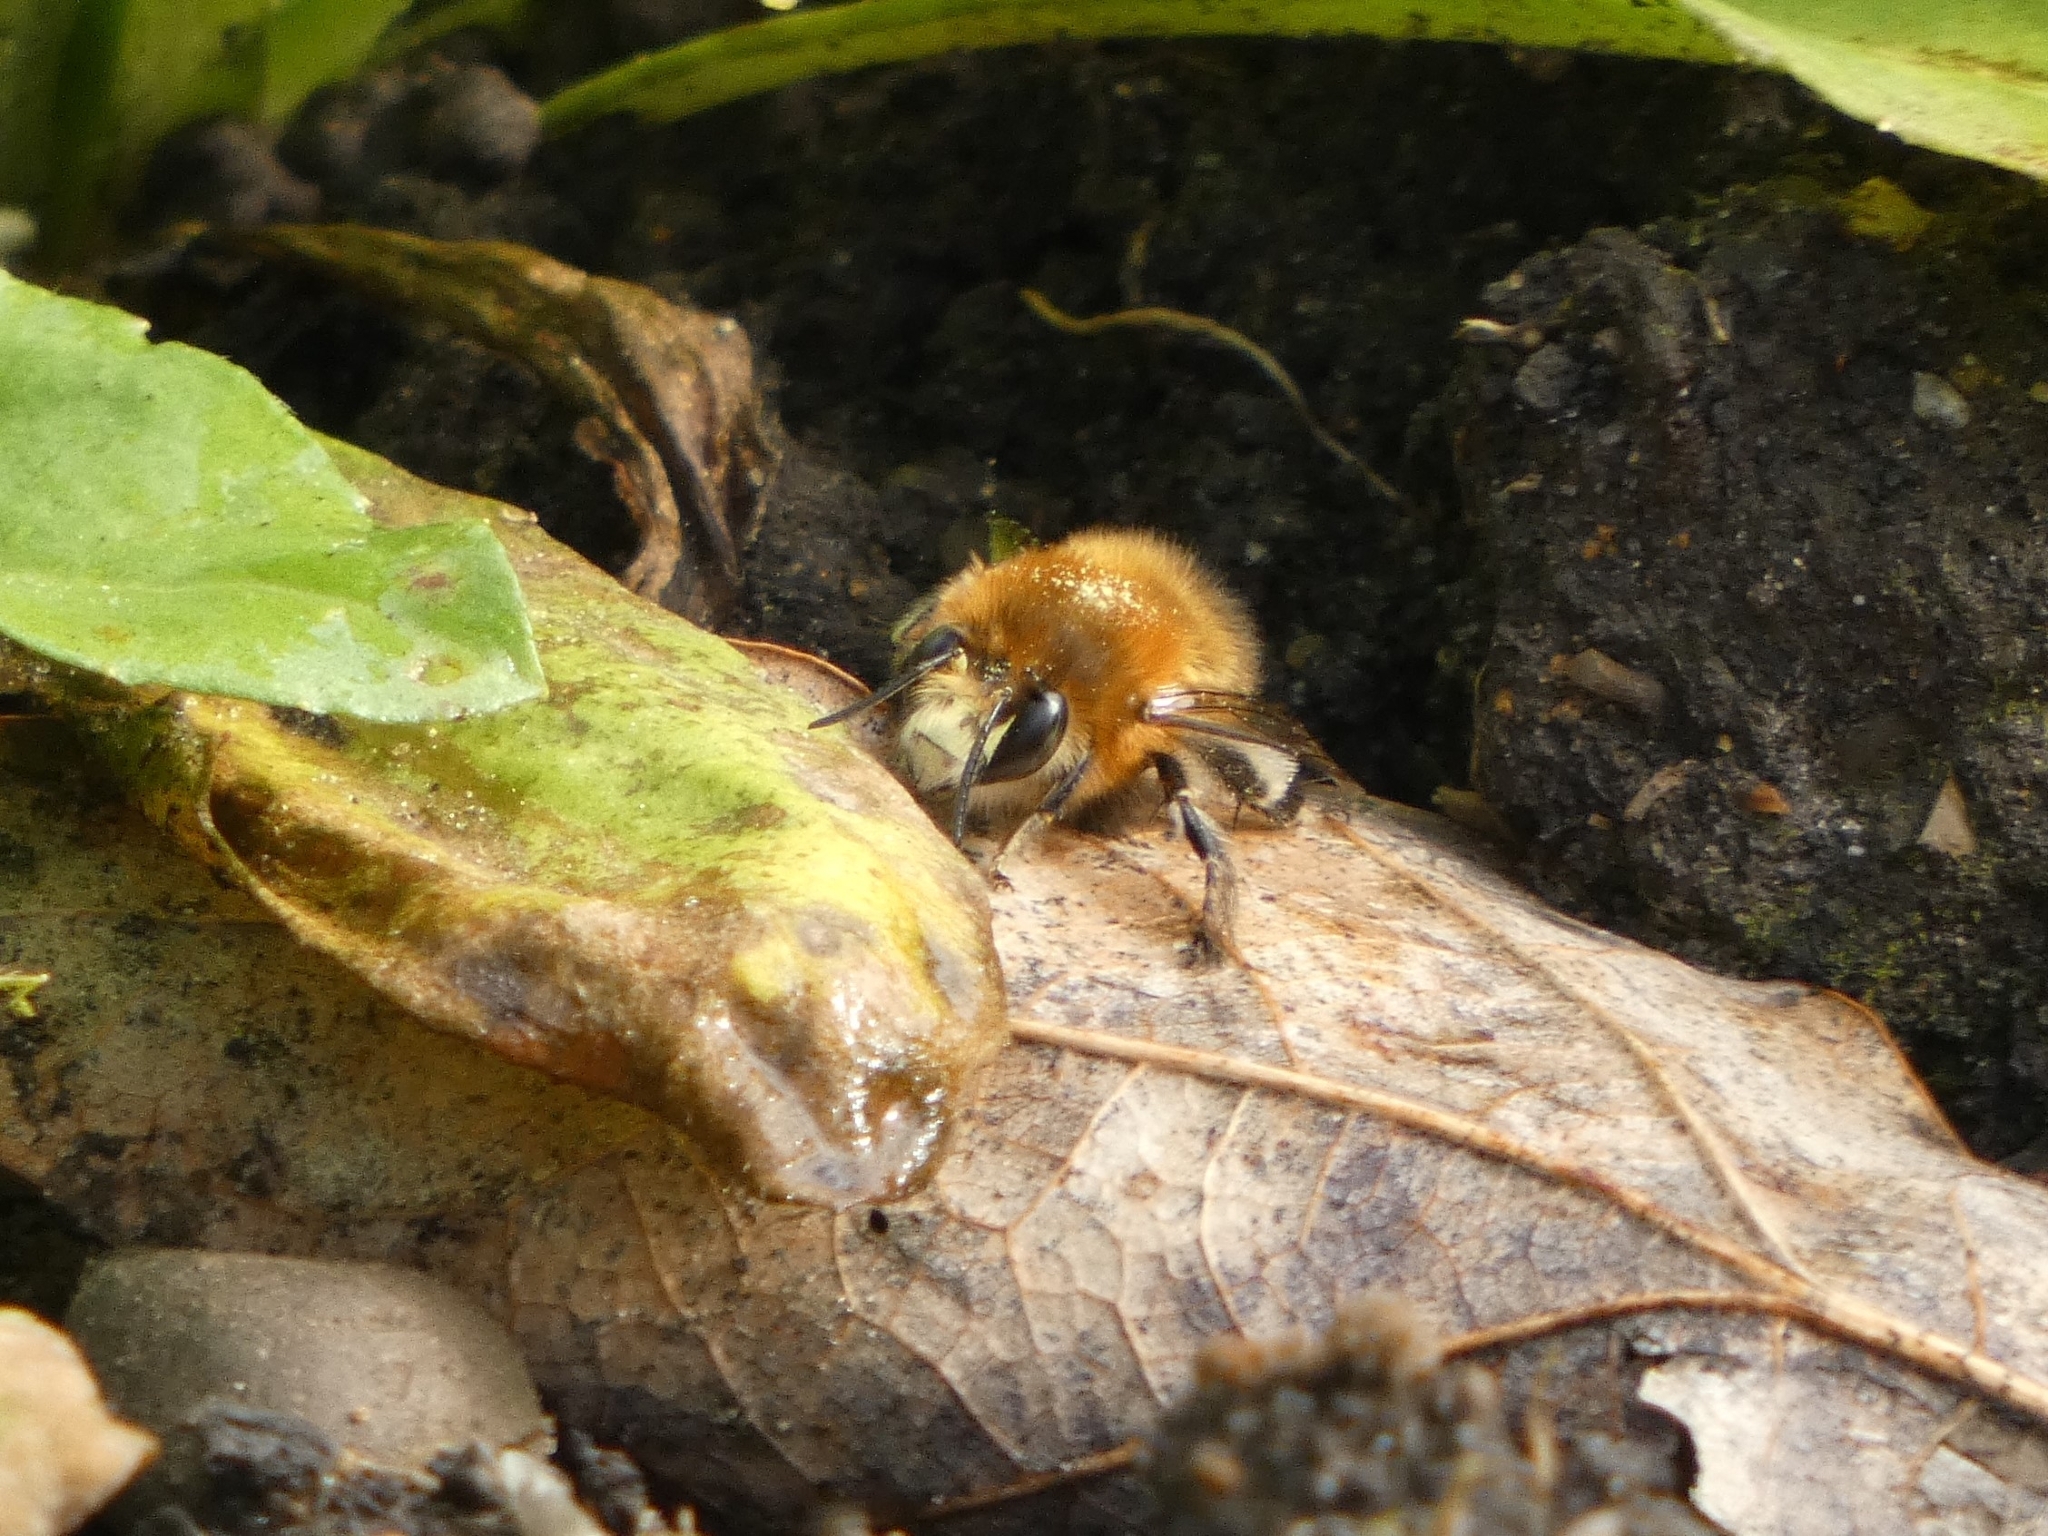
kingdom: Animalia
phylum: Arthropoda
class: Insecta
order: Hymenoptera
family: Apidae
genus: Anthophora
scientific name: Anthophora plumipes
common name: Hairy-footed flower bee
